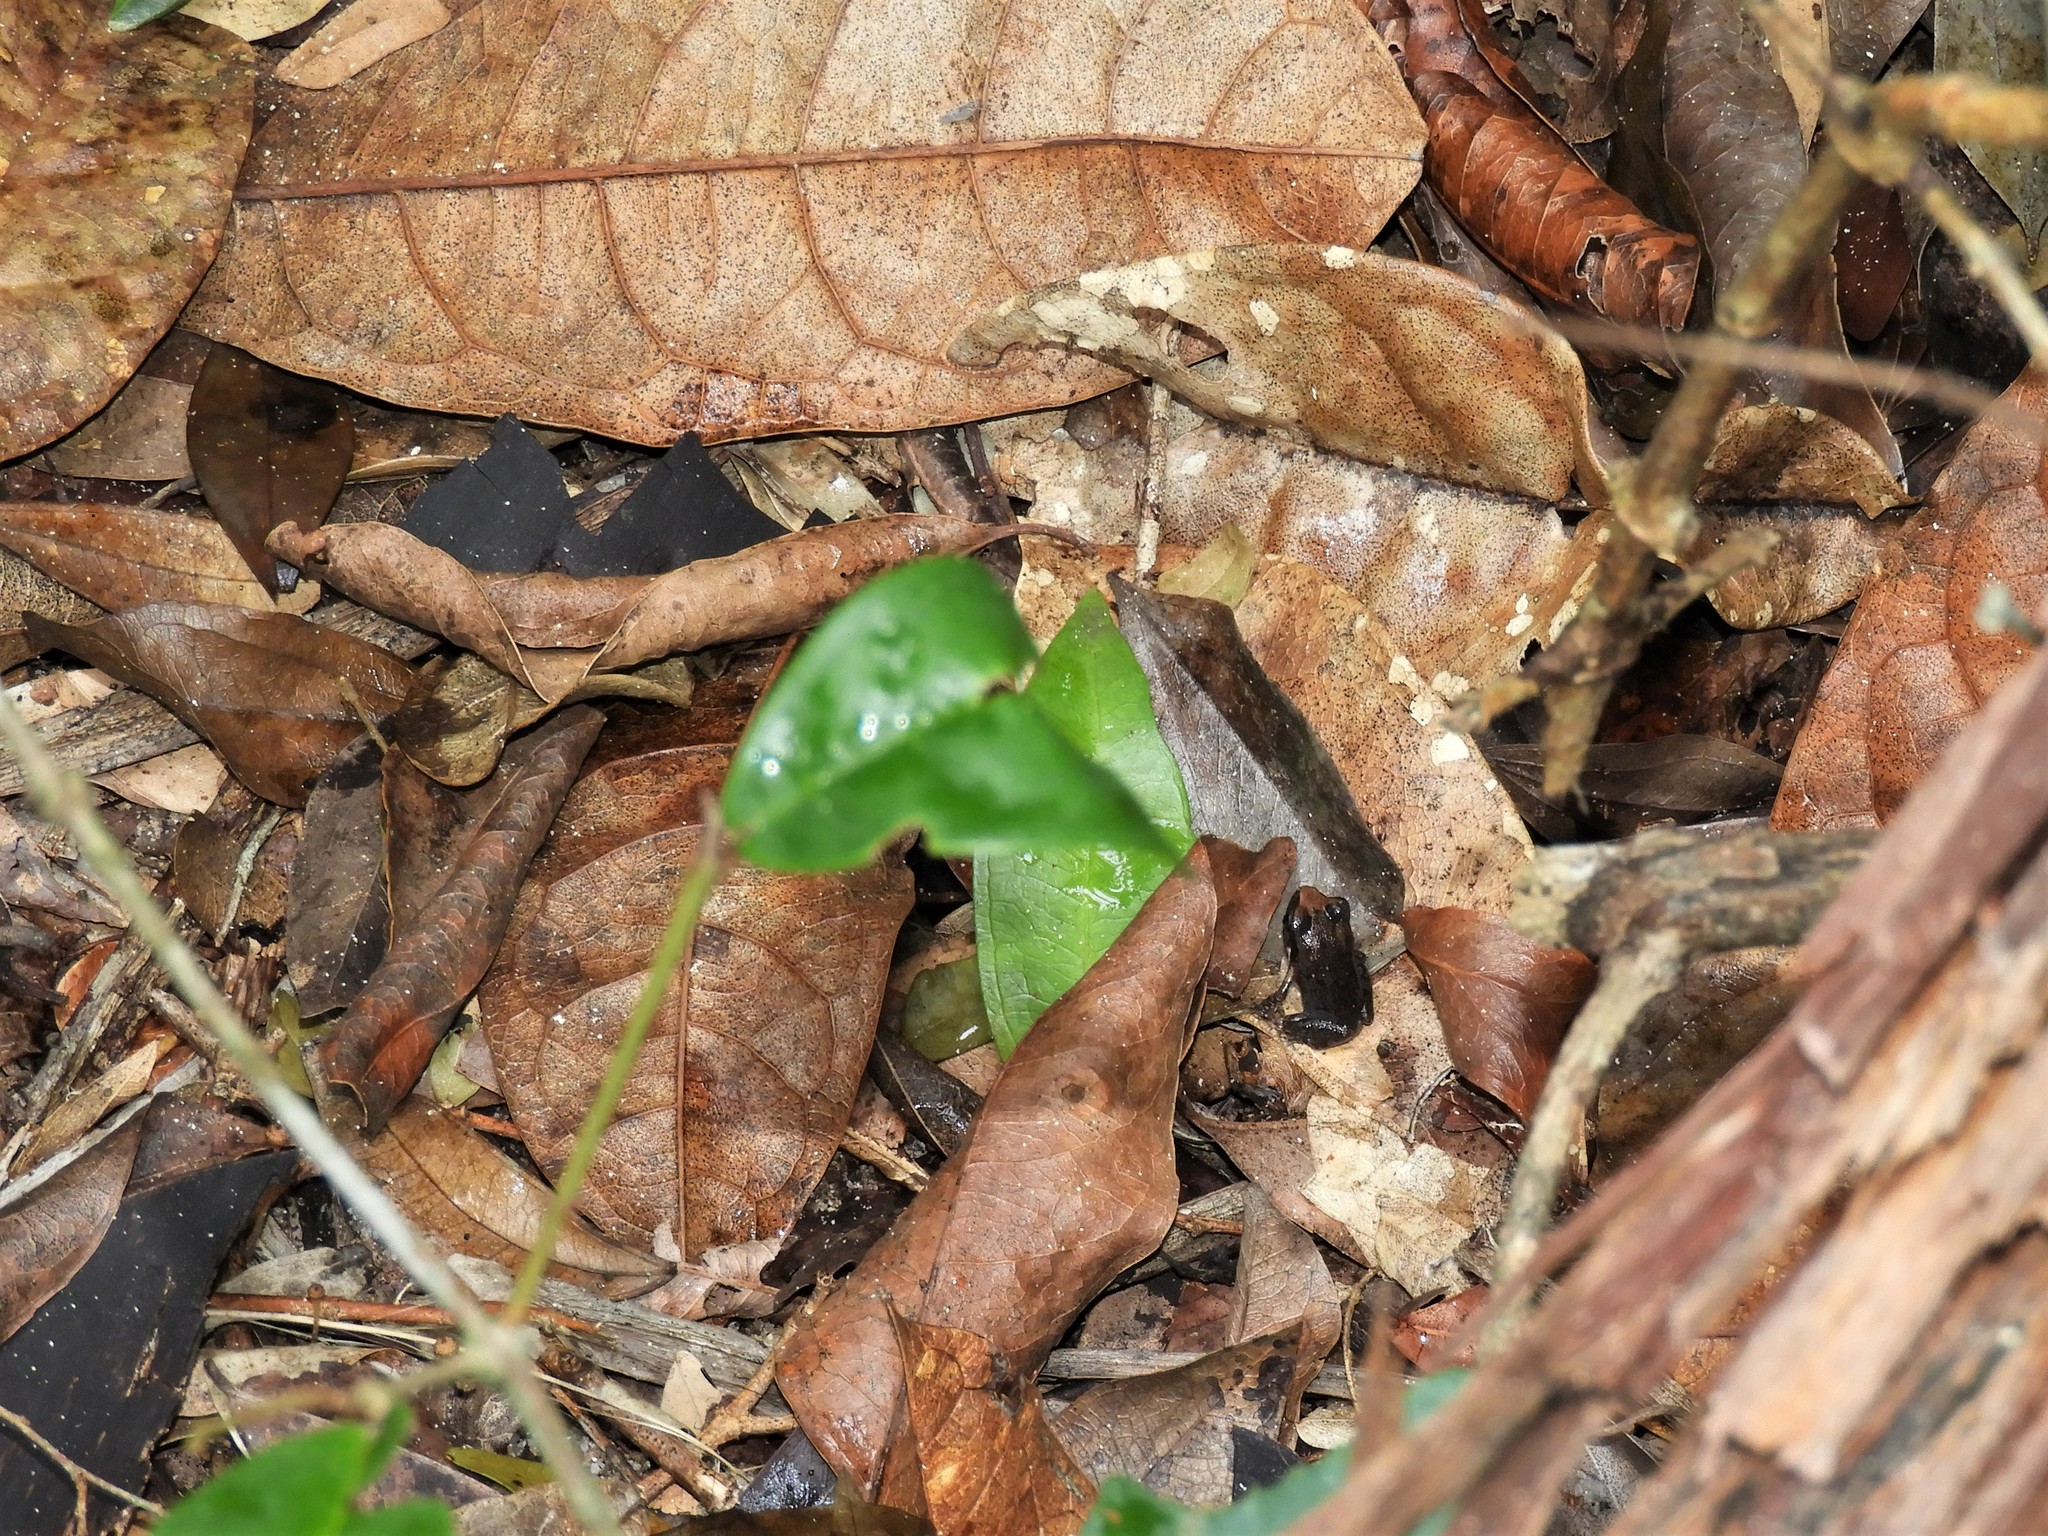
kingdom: Animalia
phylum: Chordata
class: Amphibia
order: Anura
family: Arthroleptidae
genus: Arthroleptis
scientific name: Arthroleptis stenodactylus
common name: Dune squeaker
